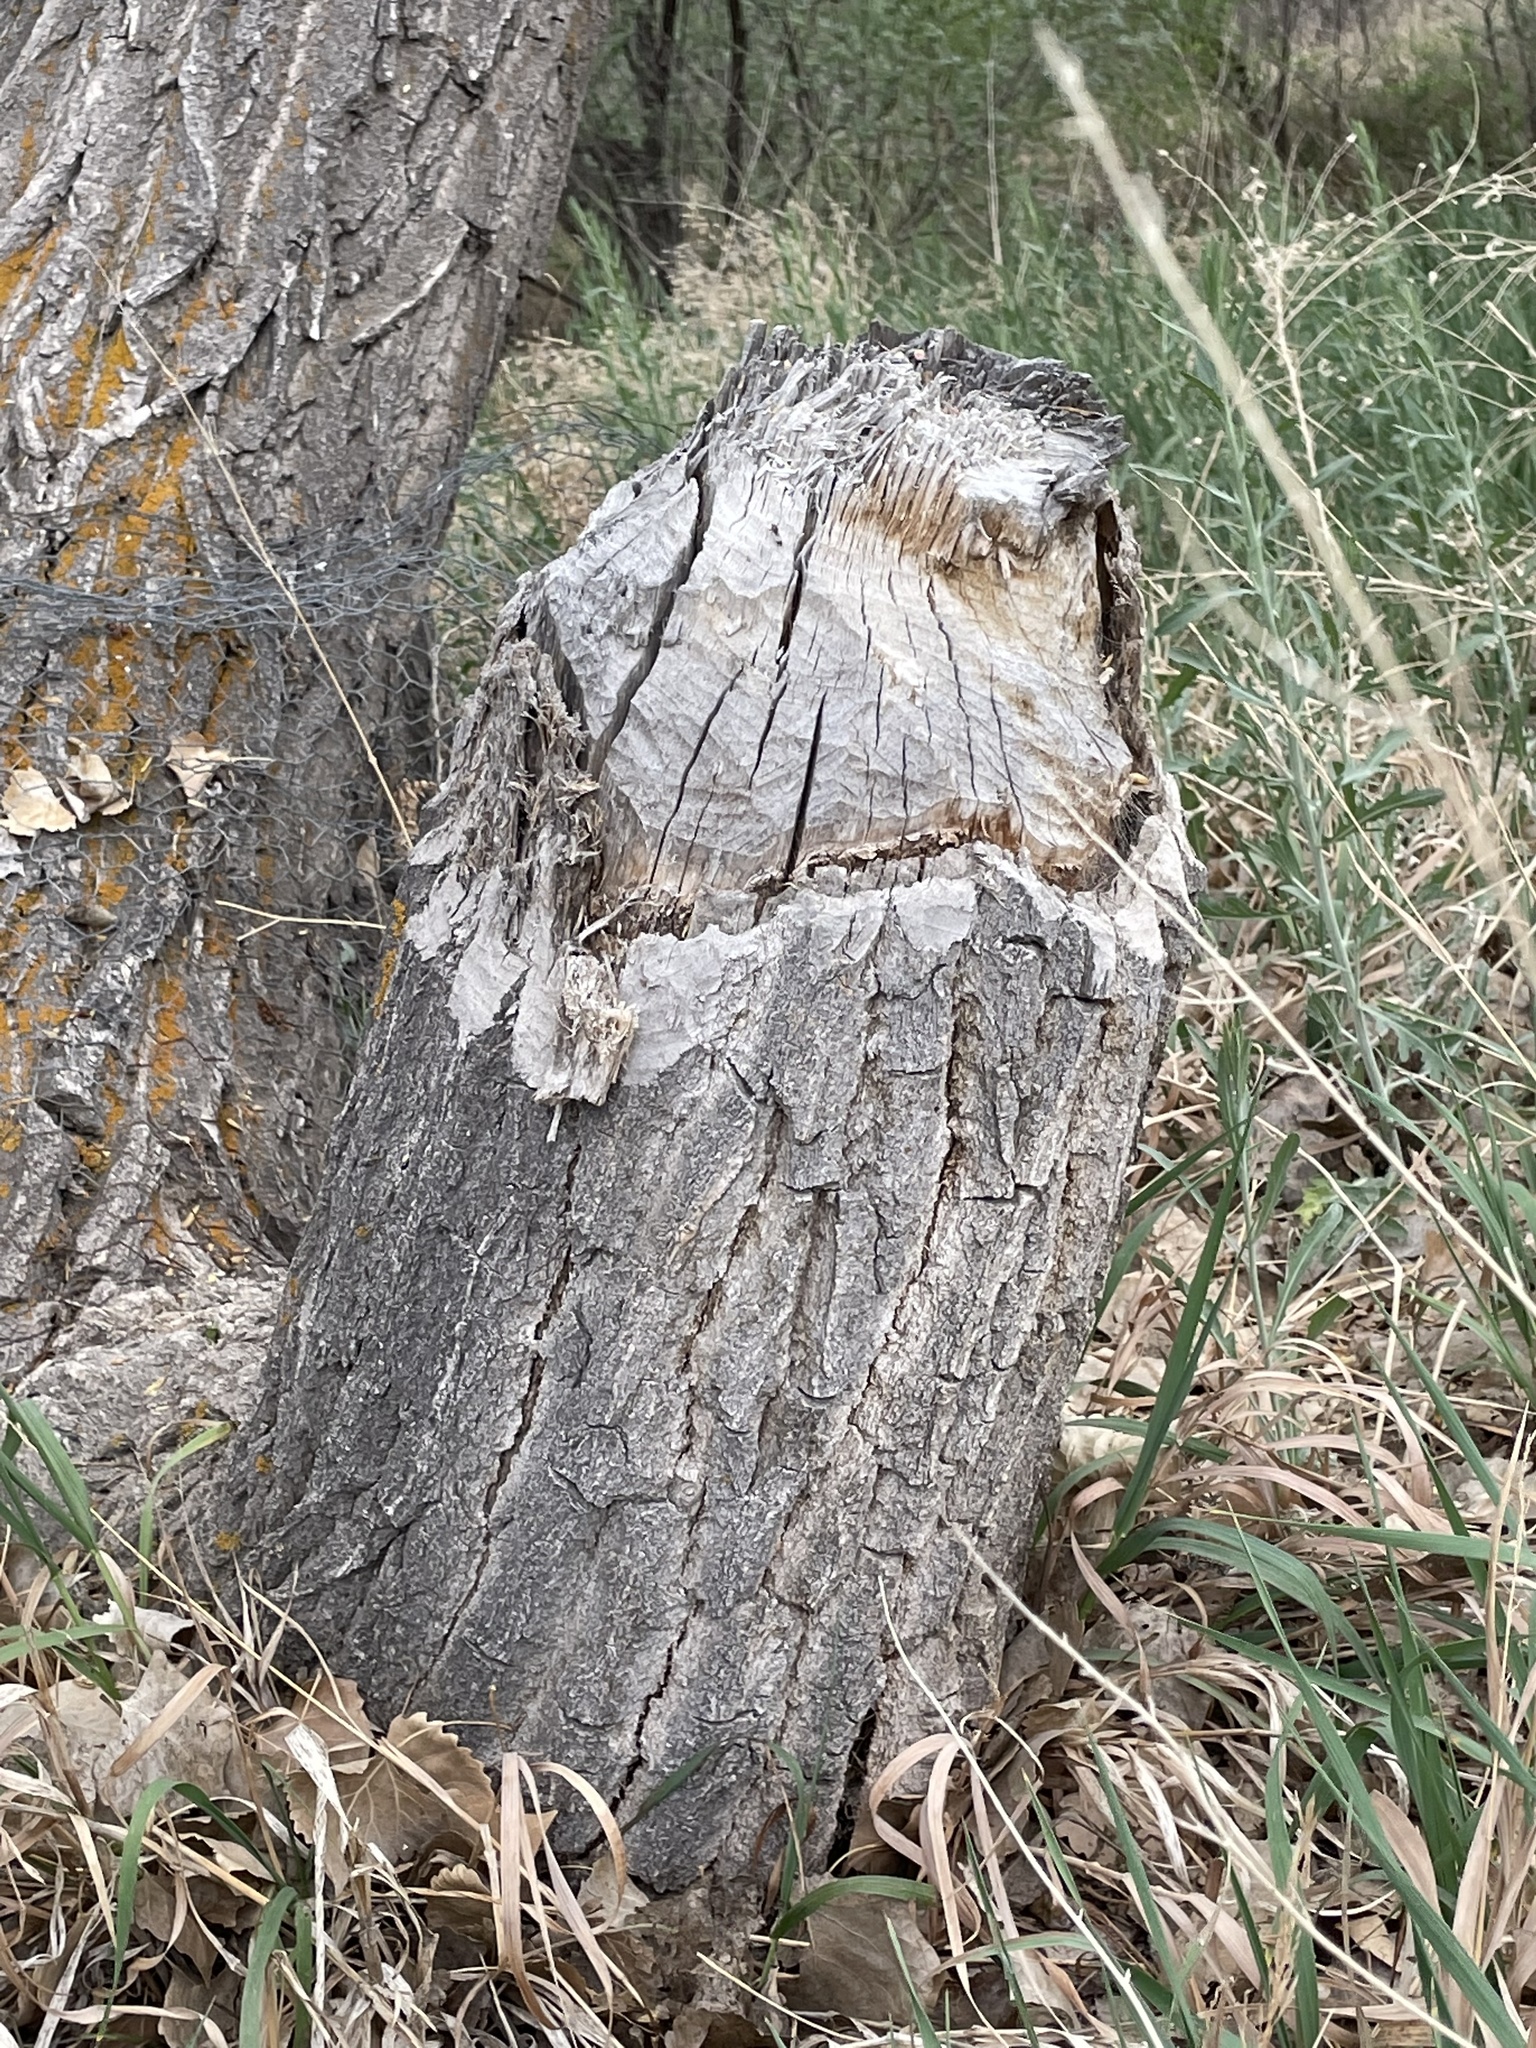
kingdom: Animalia
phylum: Chordata
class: Mammalia
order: Rodentia
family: Castoridae
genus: Castor
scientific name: Castor canadensis
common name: American beaver
